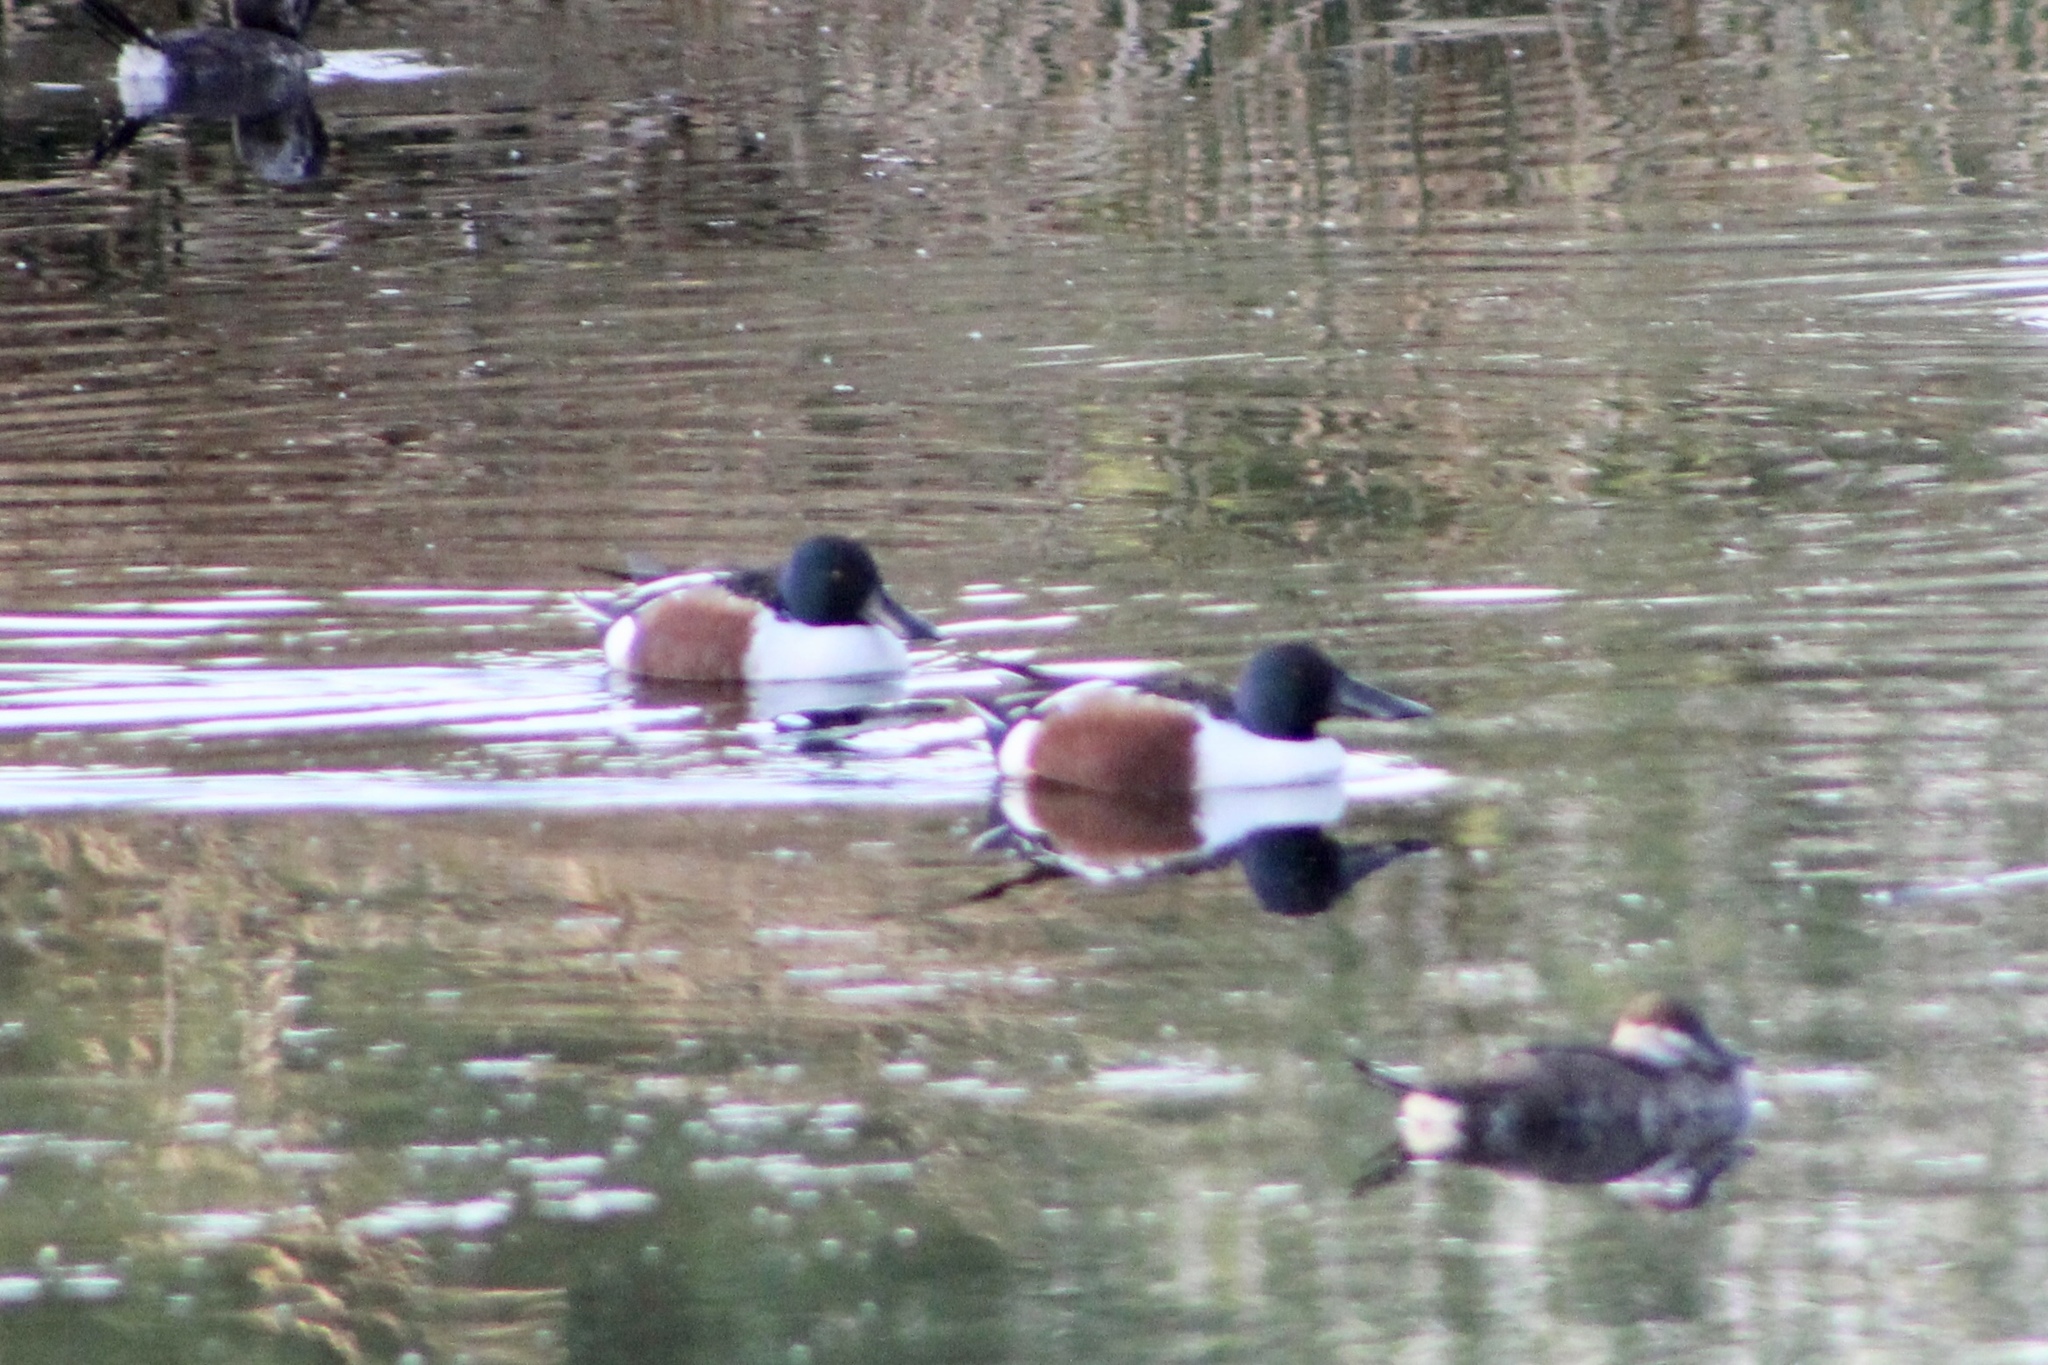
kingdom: Animalia
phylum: Chordata
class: Aves
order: Anseriformes
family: Anatidae
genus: Spatula
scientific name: Spatula clypeata
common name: Northern shoveler
